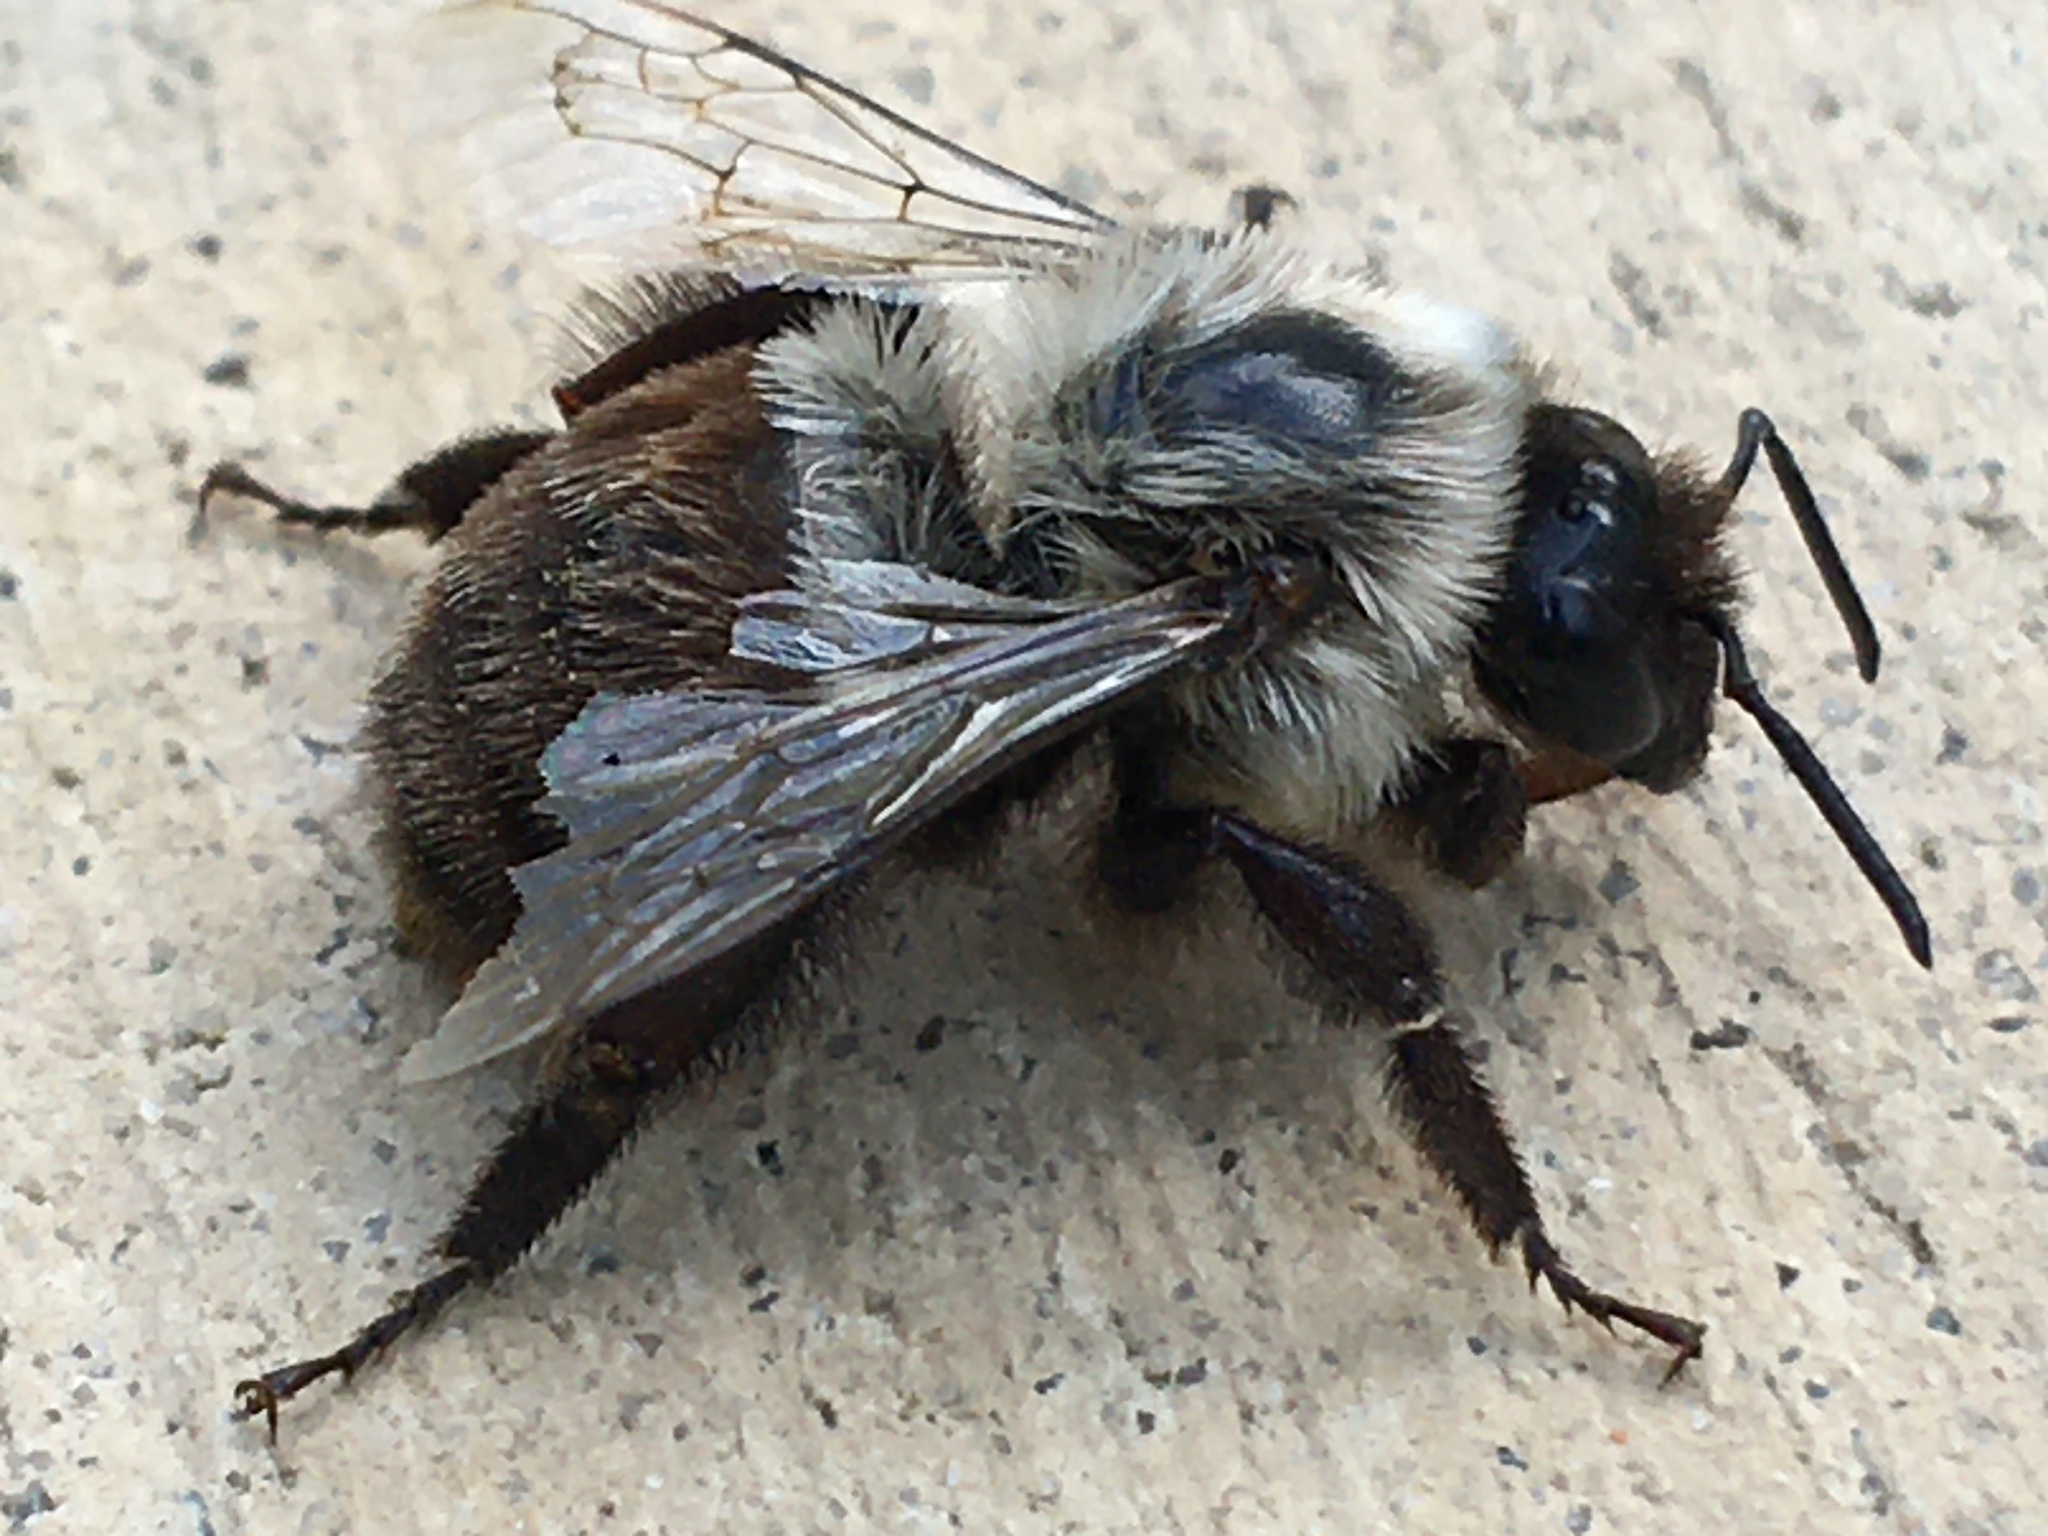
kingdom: Animalia
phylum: Arthropoda
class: Insecta
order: Hymenoptera
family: Apidae
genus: Bombus
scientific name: Bombus impatiens
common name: Common eastern bumble bee
